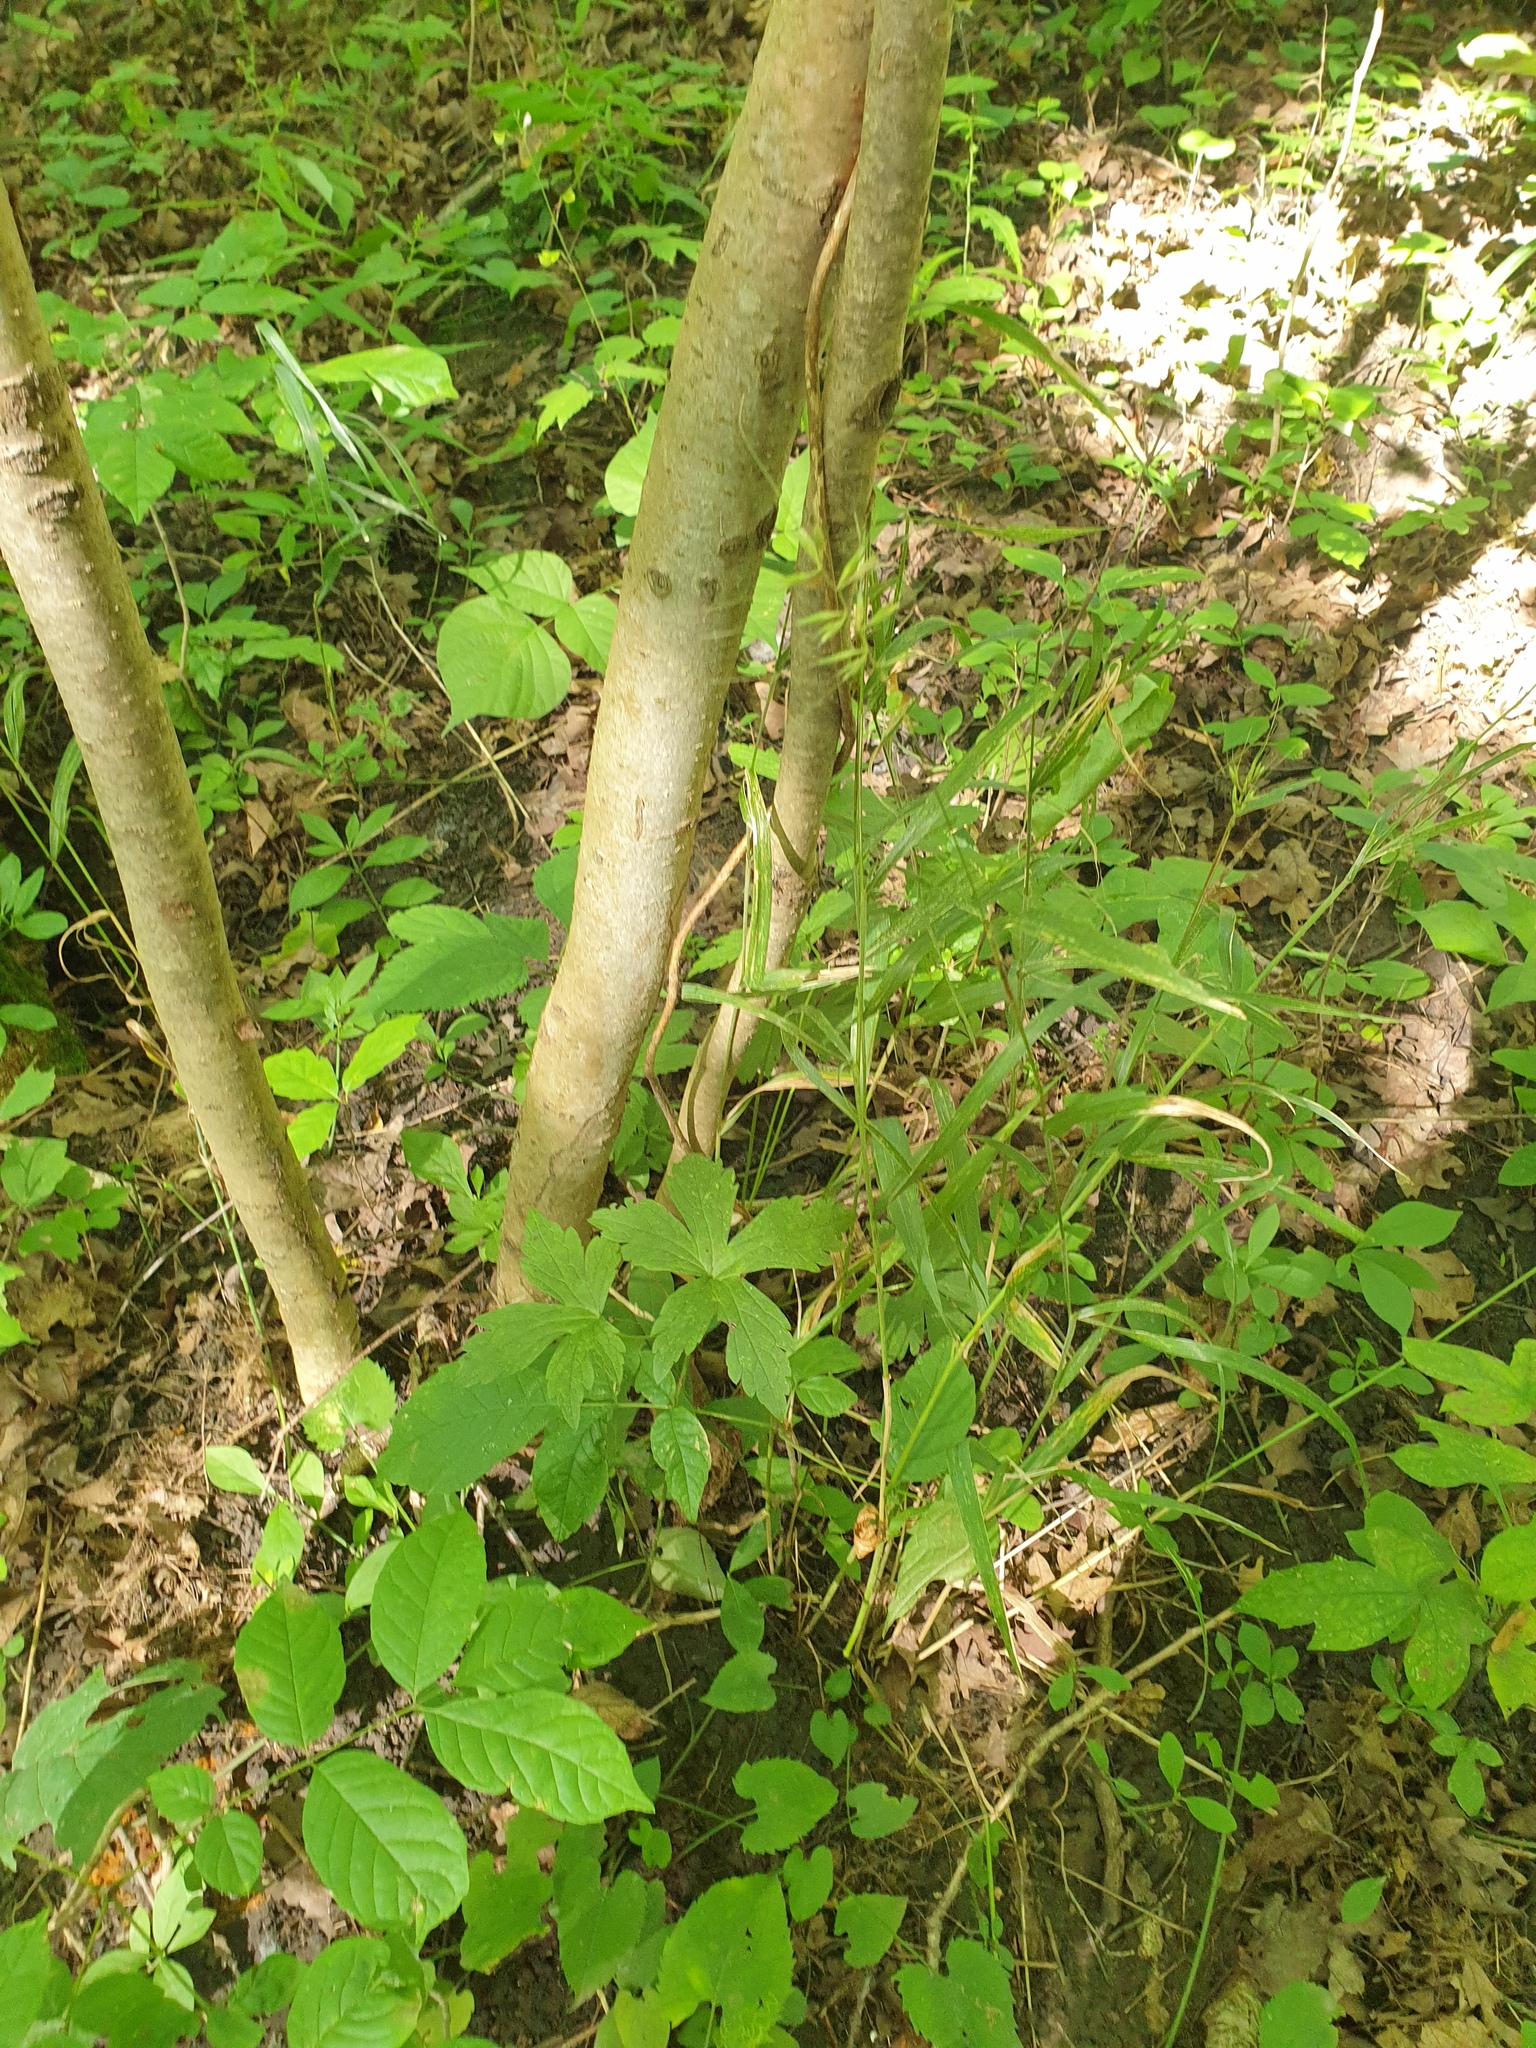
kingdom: Plantae
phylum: Tracheophyta
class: Liliopsida
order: Poales
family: Poaceae
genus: Elymus
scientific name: Elymus hystrix
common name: Bottlebrush grass
